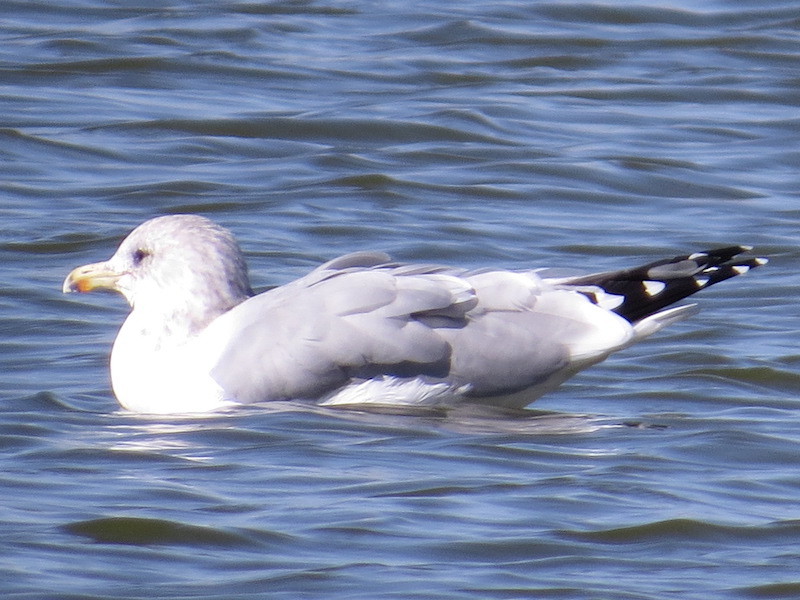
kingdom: Animalia
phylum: Chordata
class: Aves
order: Charadriiformes
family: Laridae
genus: Larus
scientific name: Larus californicus
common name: California gull
